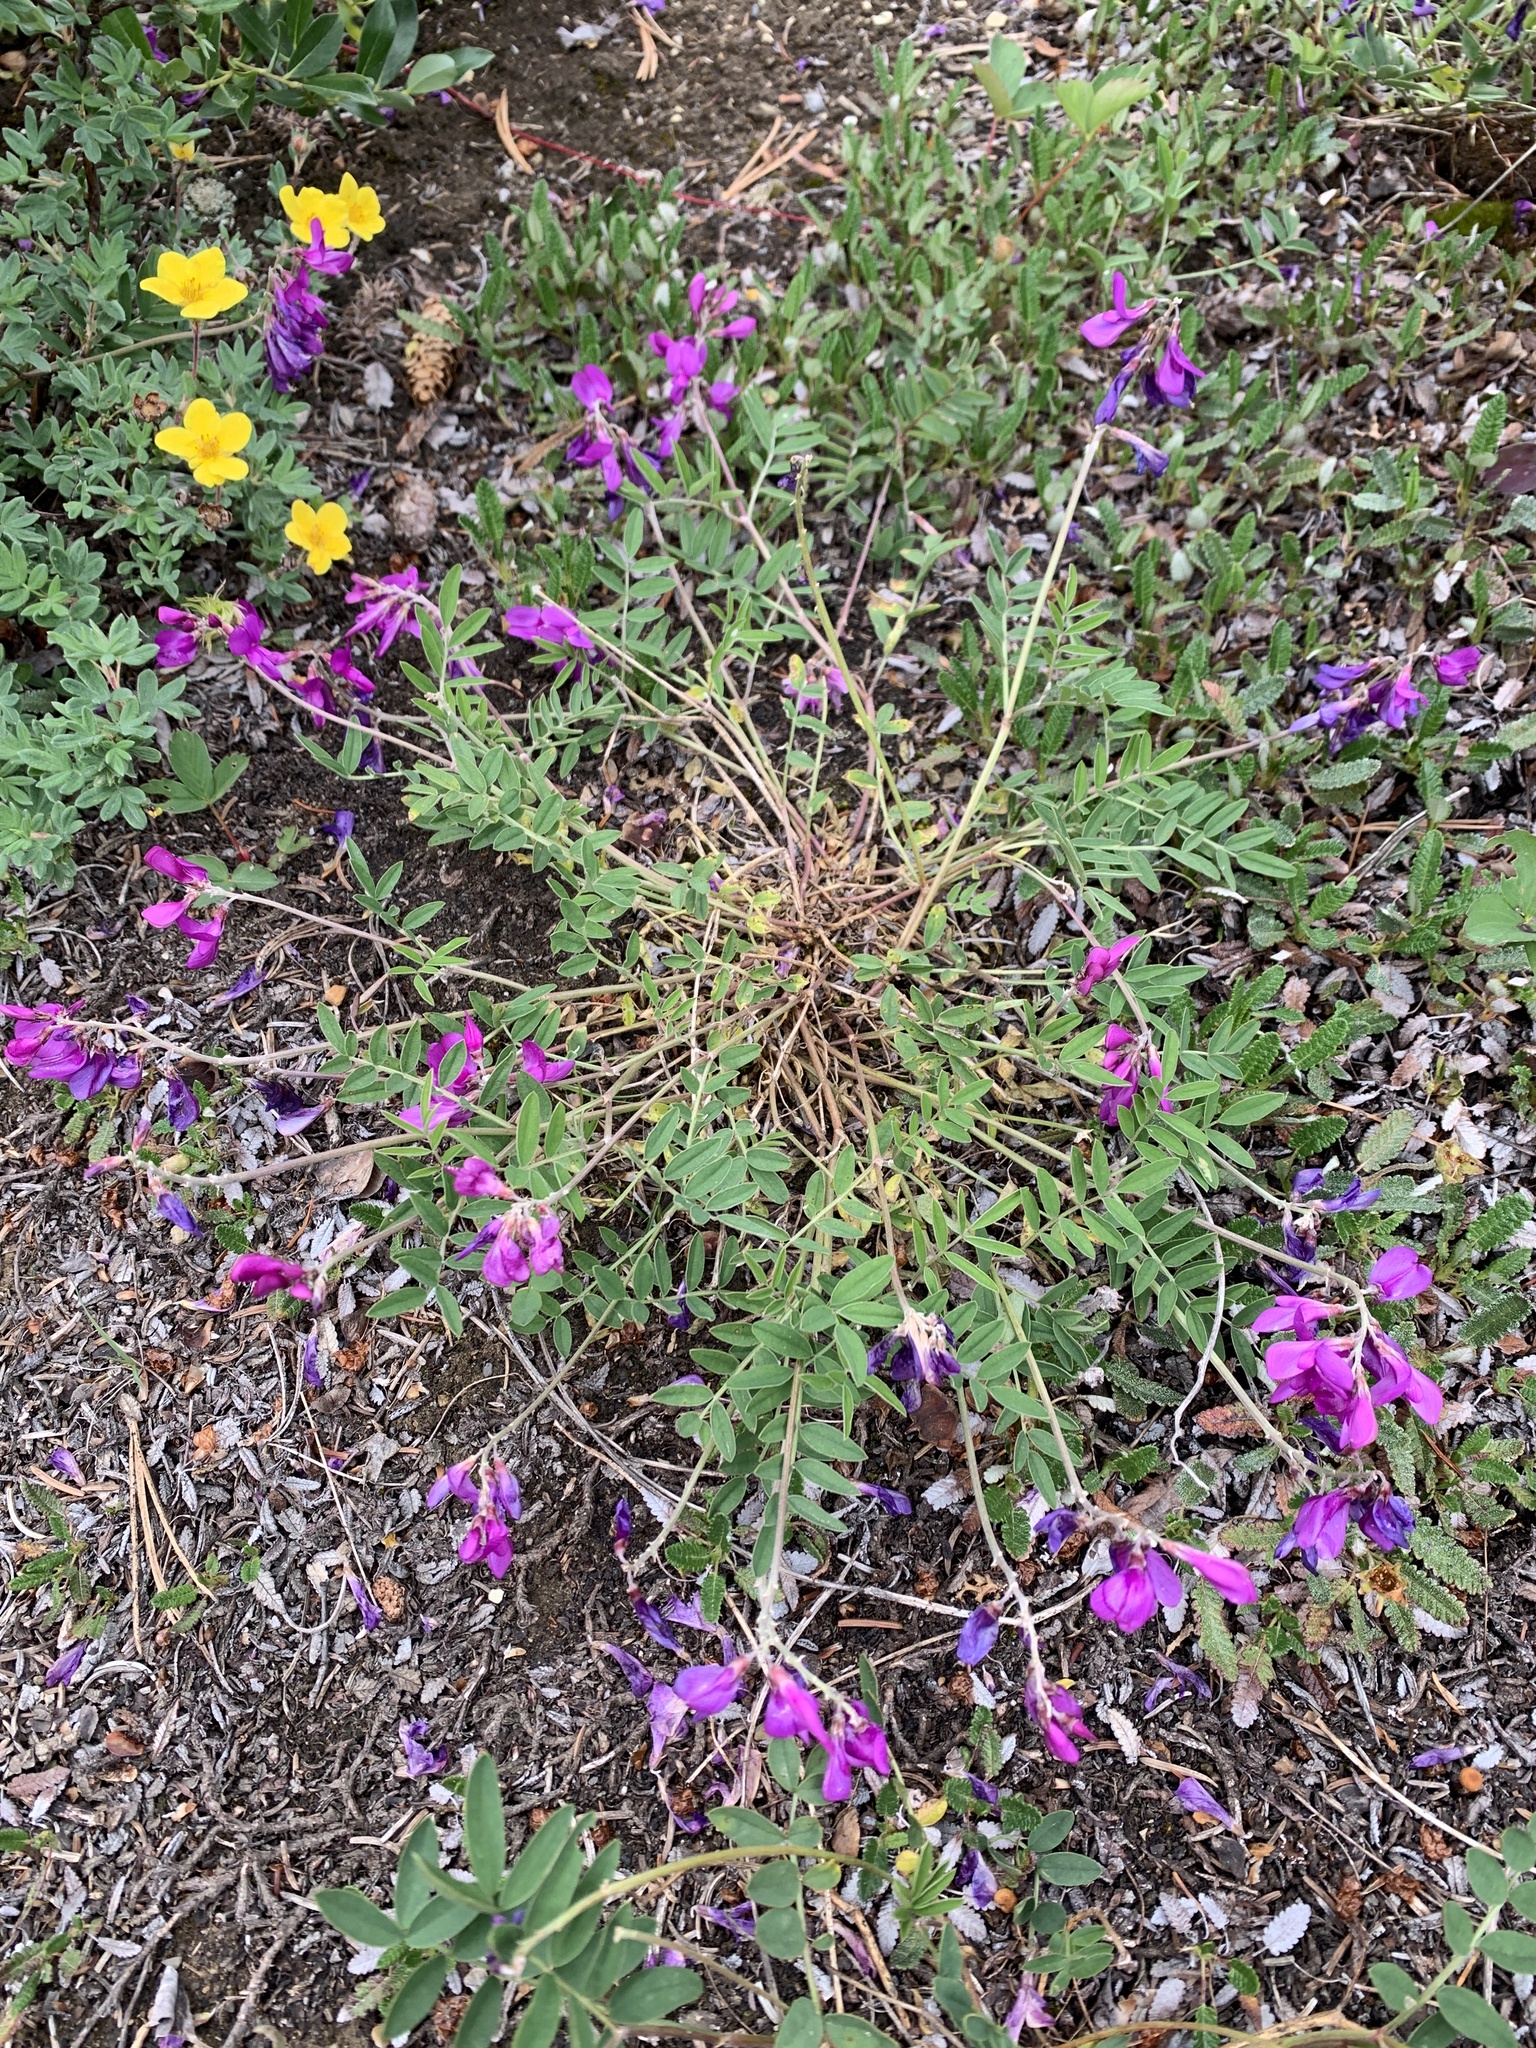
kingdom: Plantae
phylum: Tracheophyta
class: Magnoliopsida
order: Fabales
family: Fabaceae
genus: Hedysarum
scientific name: Hedysarum boreale
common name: Northern sweet-vetch
